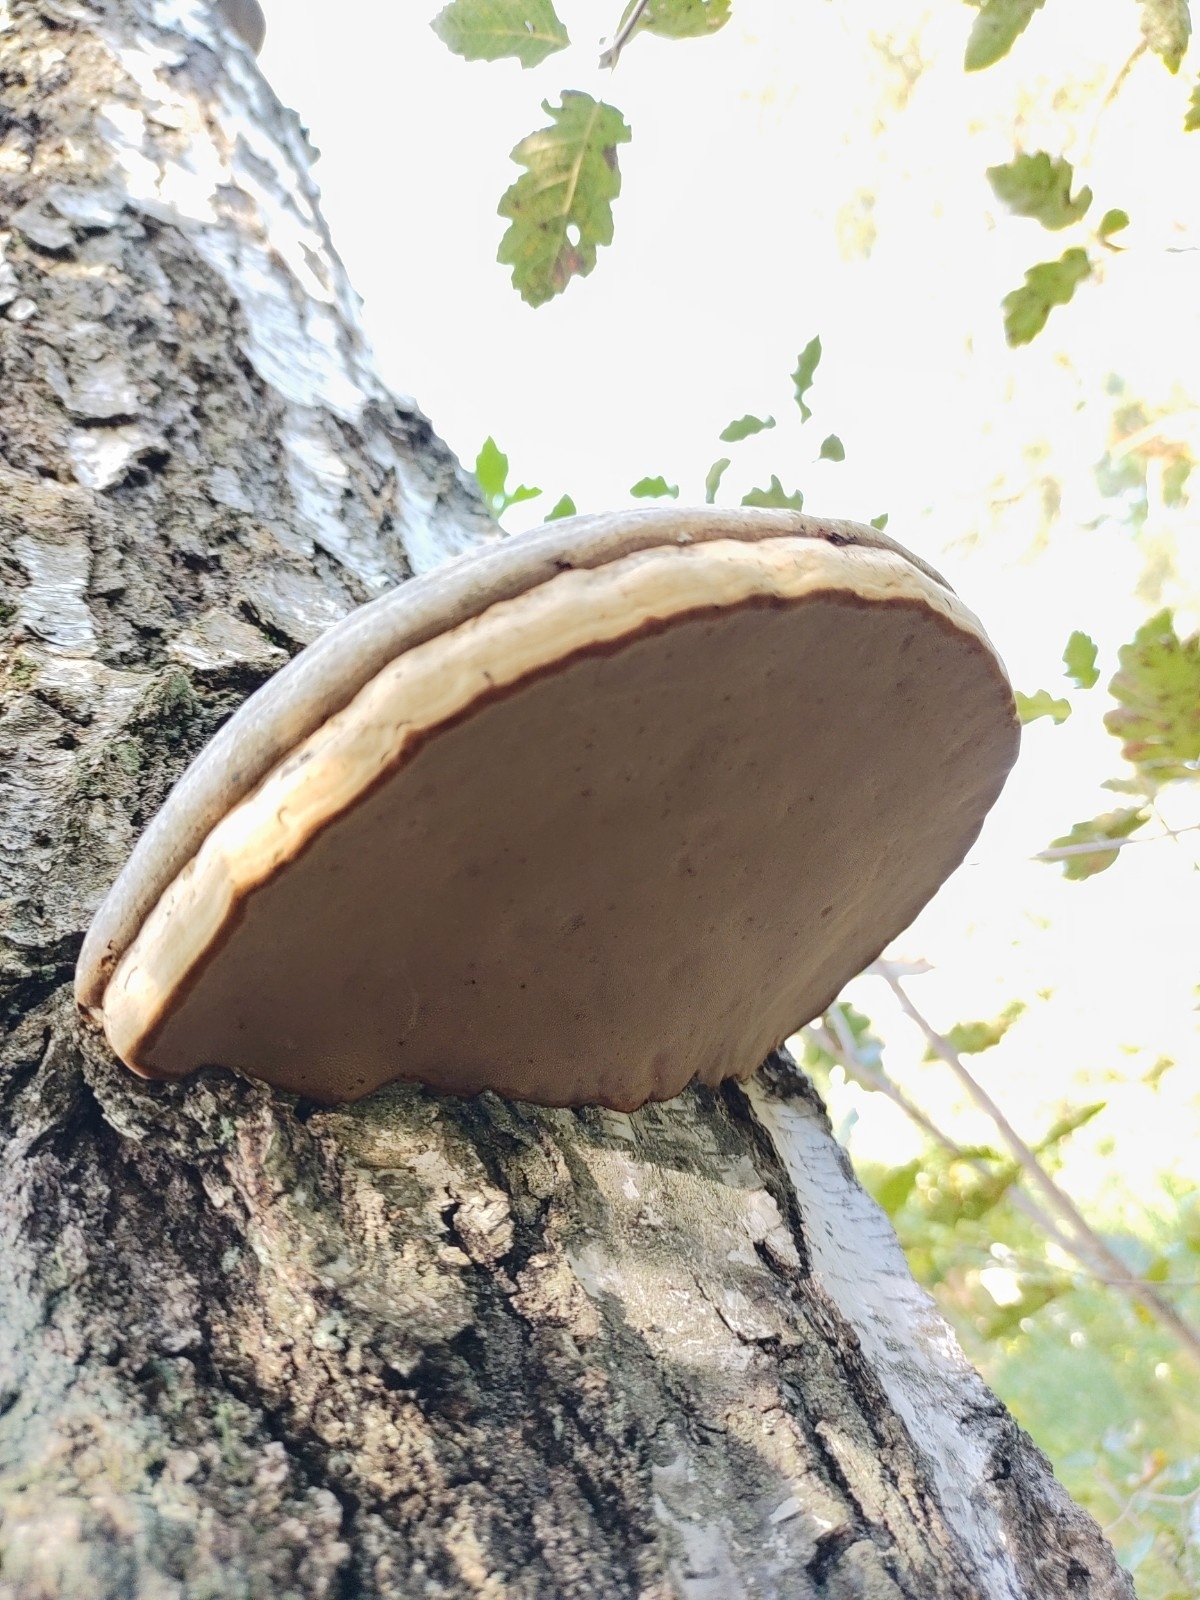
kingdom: Fungi
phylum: Basidiomycota
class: Agaricomycetes
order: Polyporales
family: Polyporaceae
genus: Fomes
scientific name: Fomes fomentarius
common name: Hoof fungus
